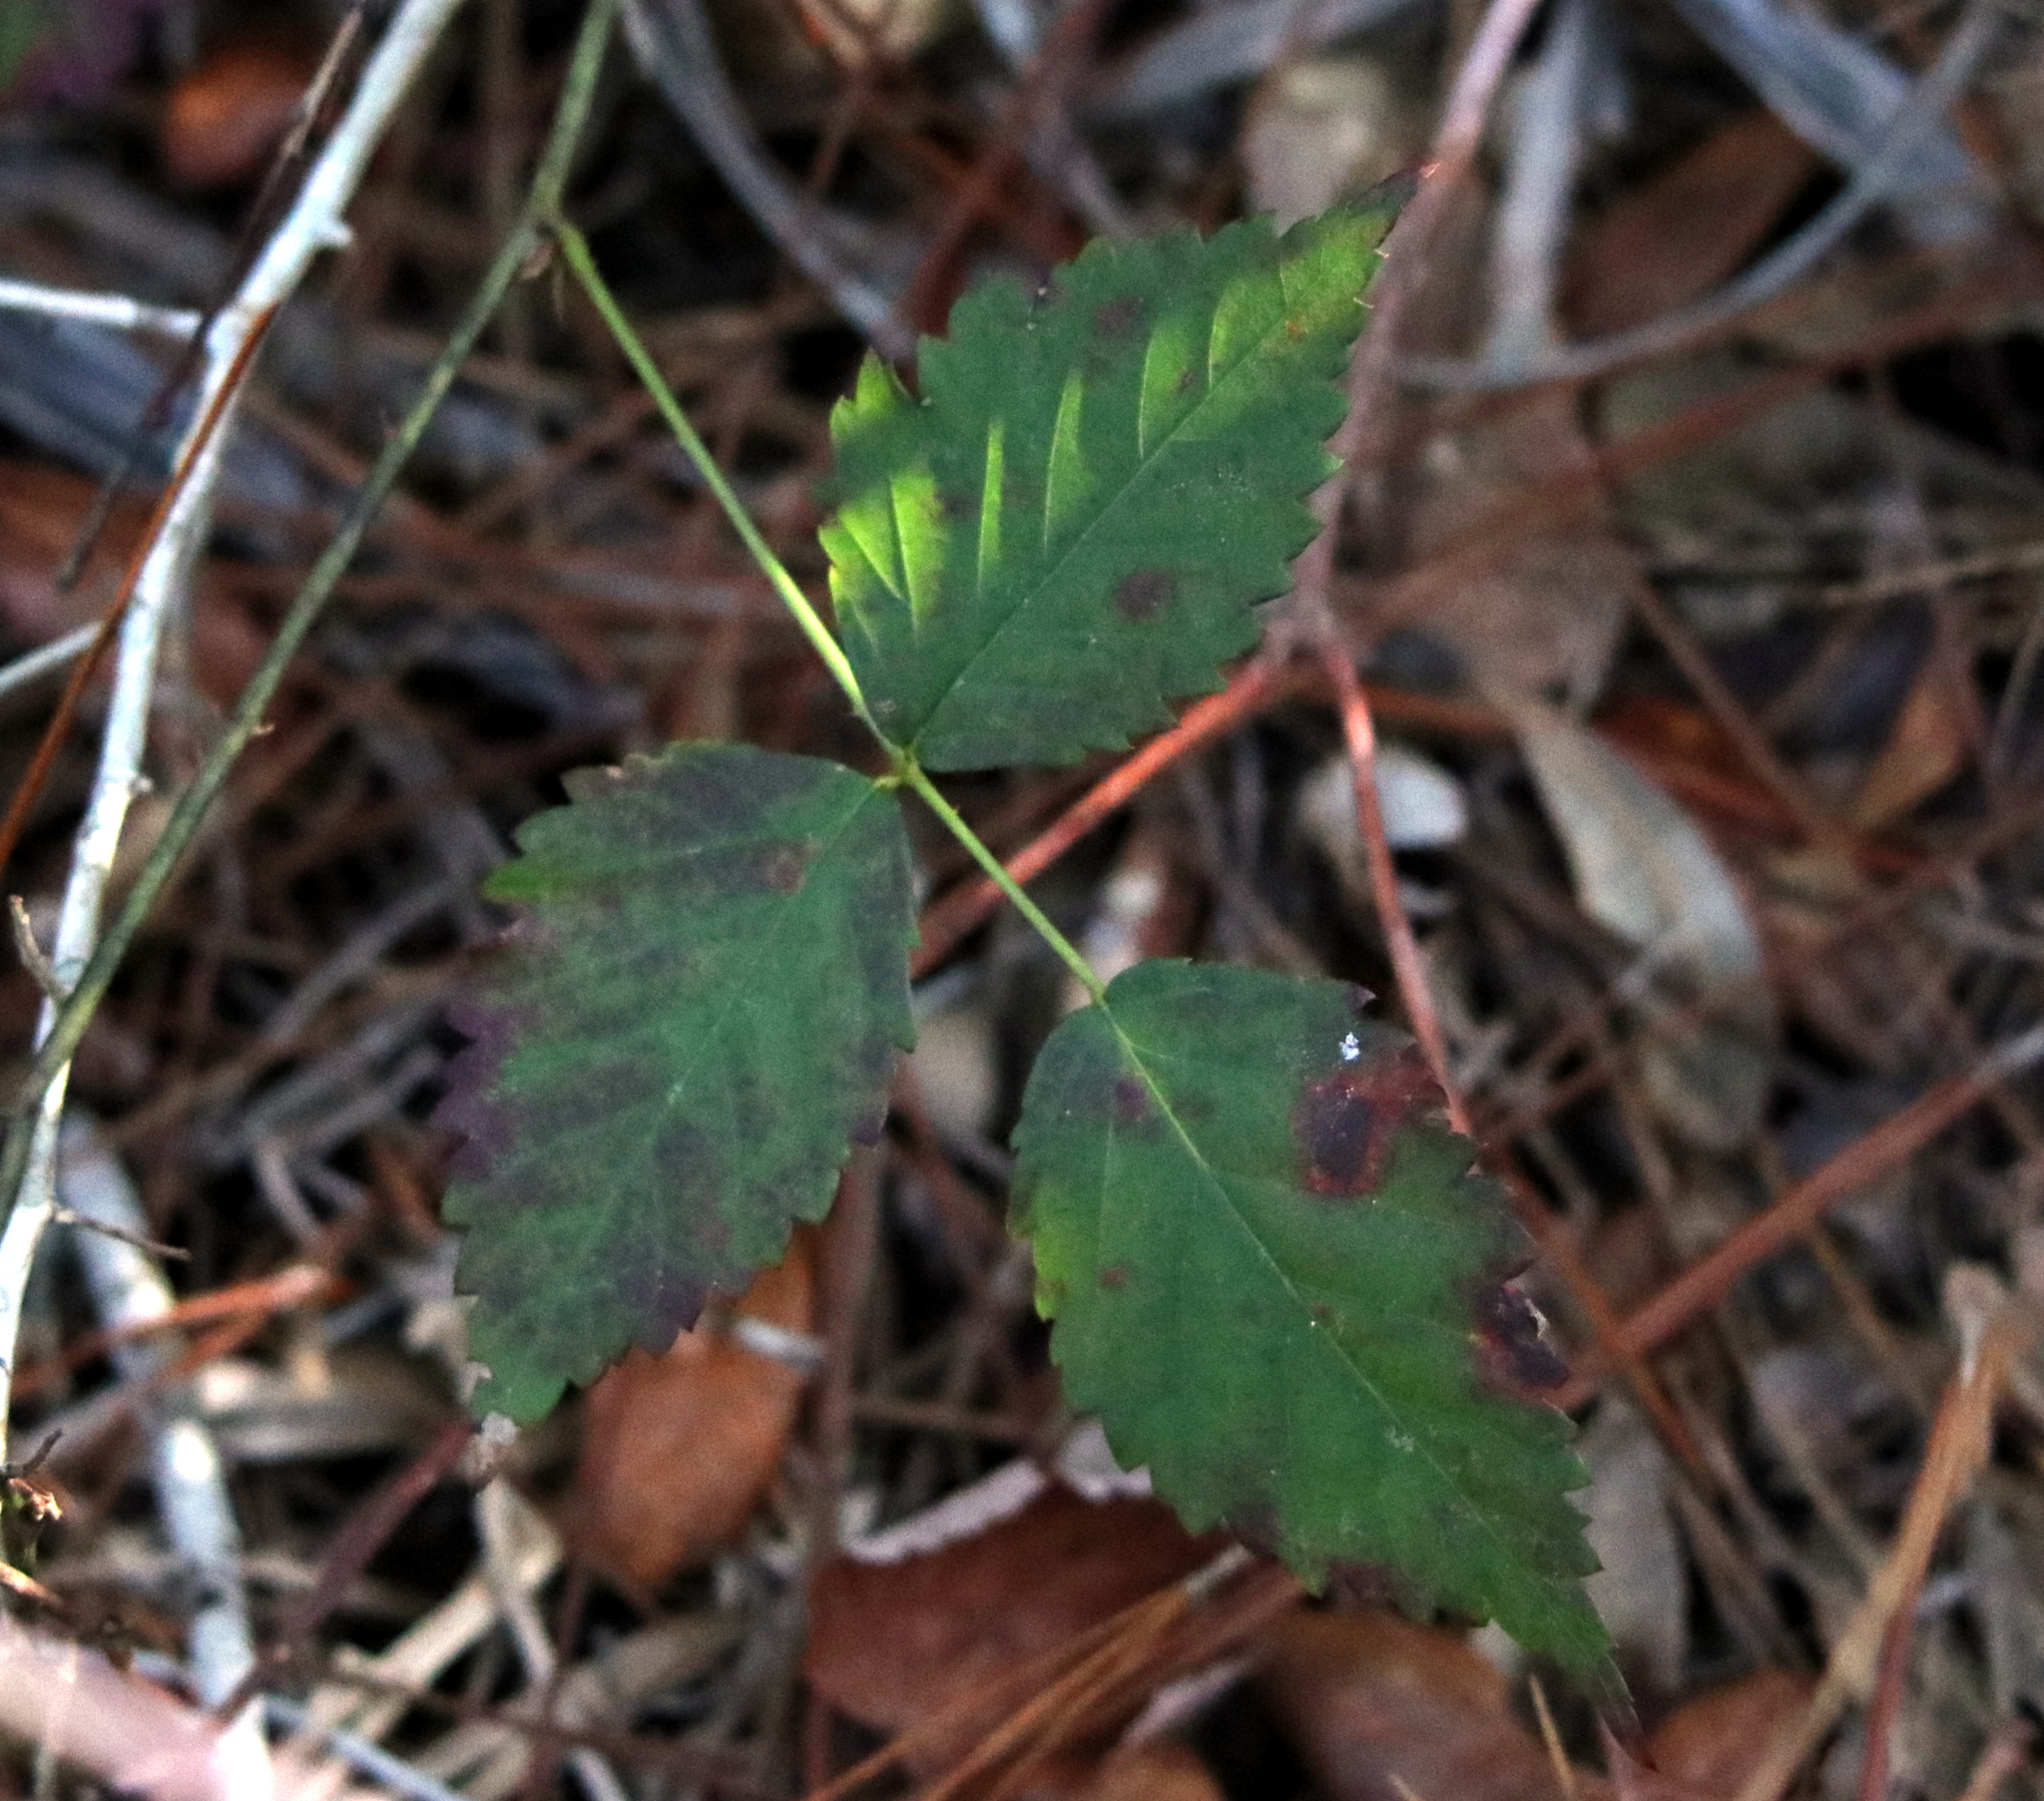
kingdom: Plantae
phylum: Tracheophyta
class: Magnoliopsida
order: Rosales
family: Rosaceae
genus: Rubus
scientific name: Rubus trivialis
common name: Southern dewberry
